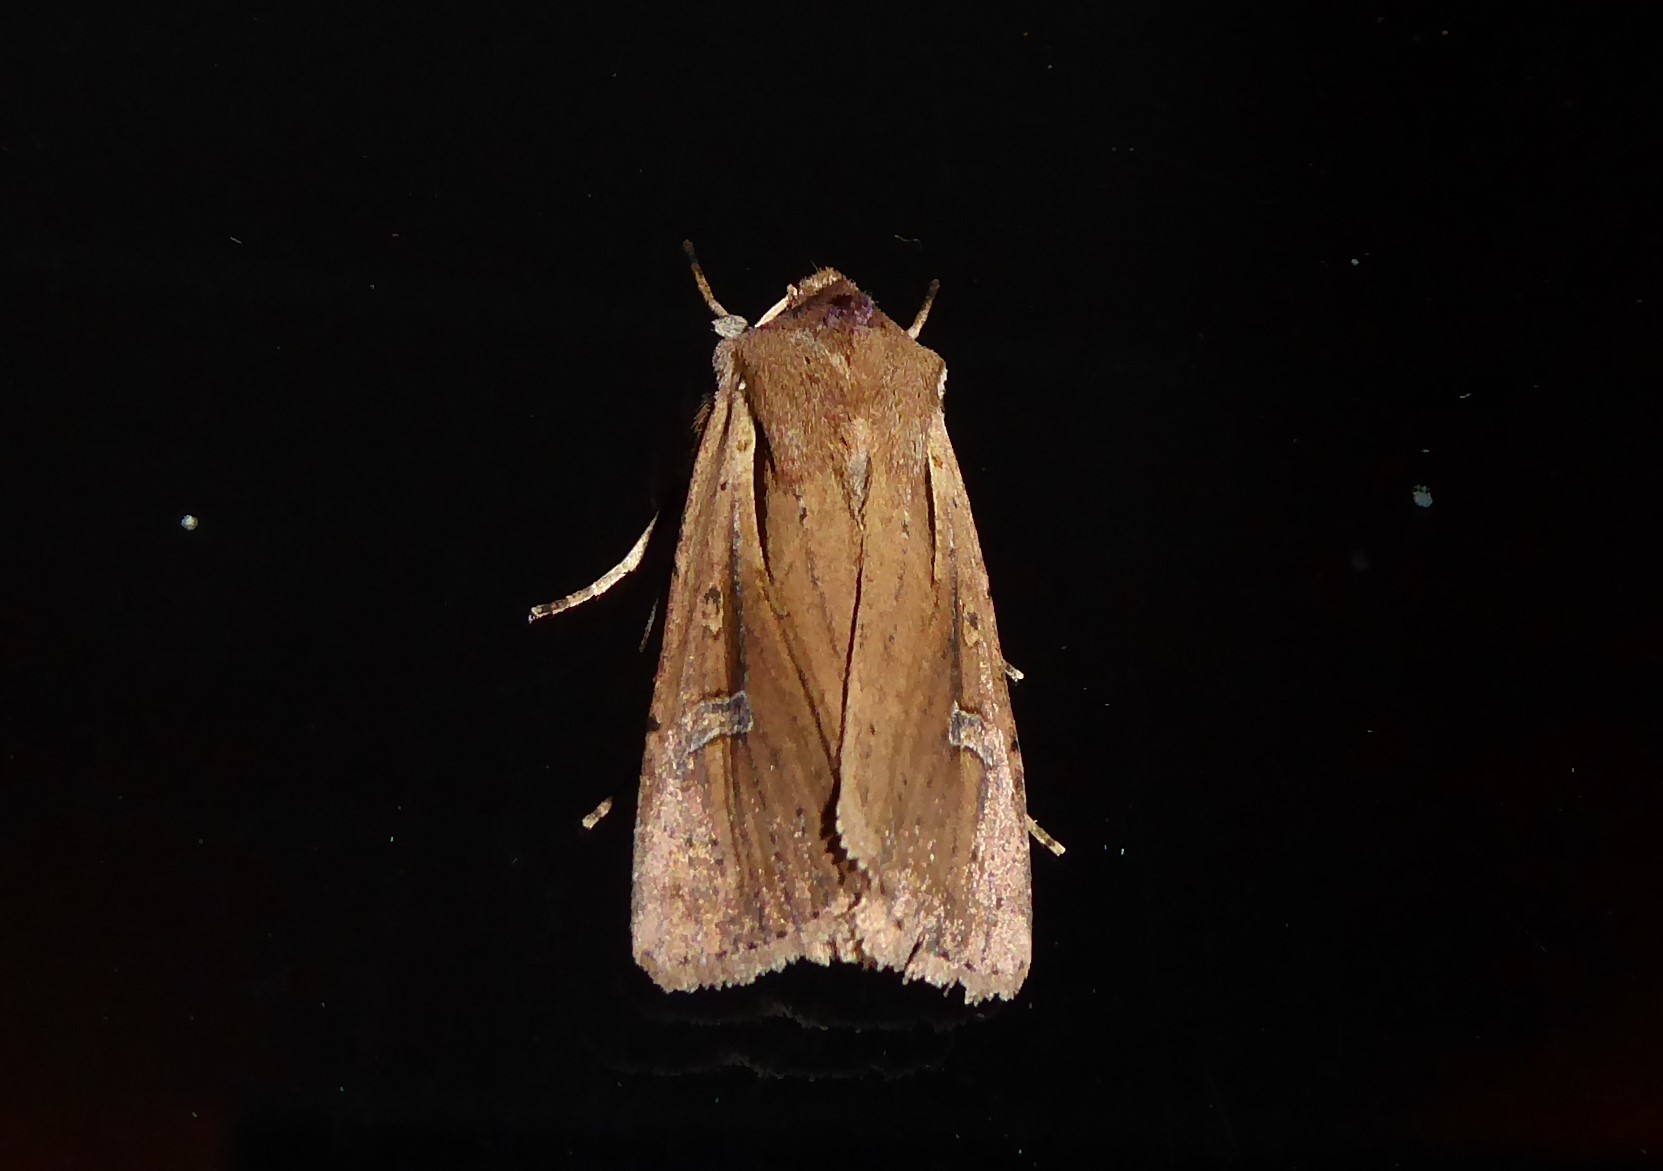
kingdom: Animalia
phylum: Arthropoda
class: Insecta
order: Lepidoptera
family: Noctuidae
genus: Ichneutica
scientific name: Ichneutica atristriga
